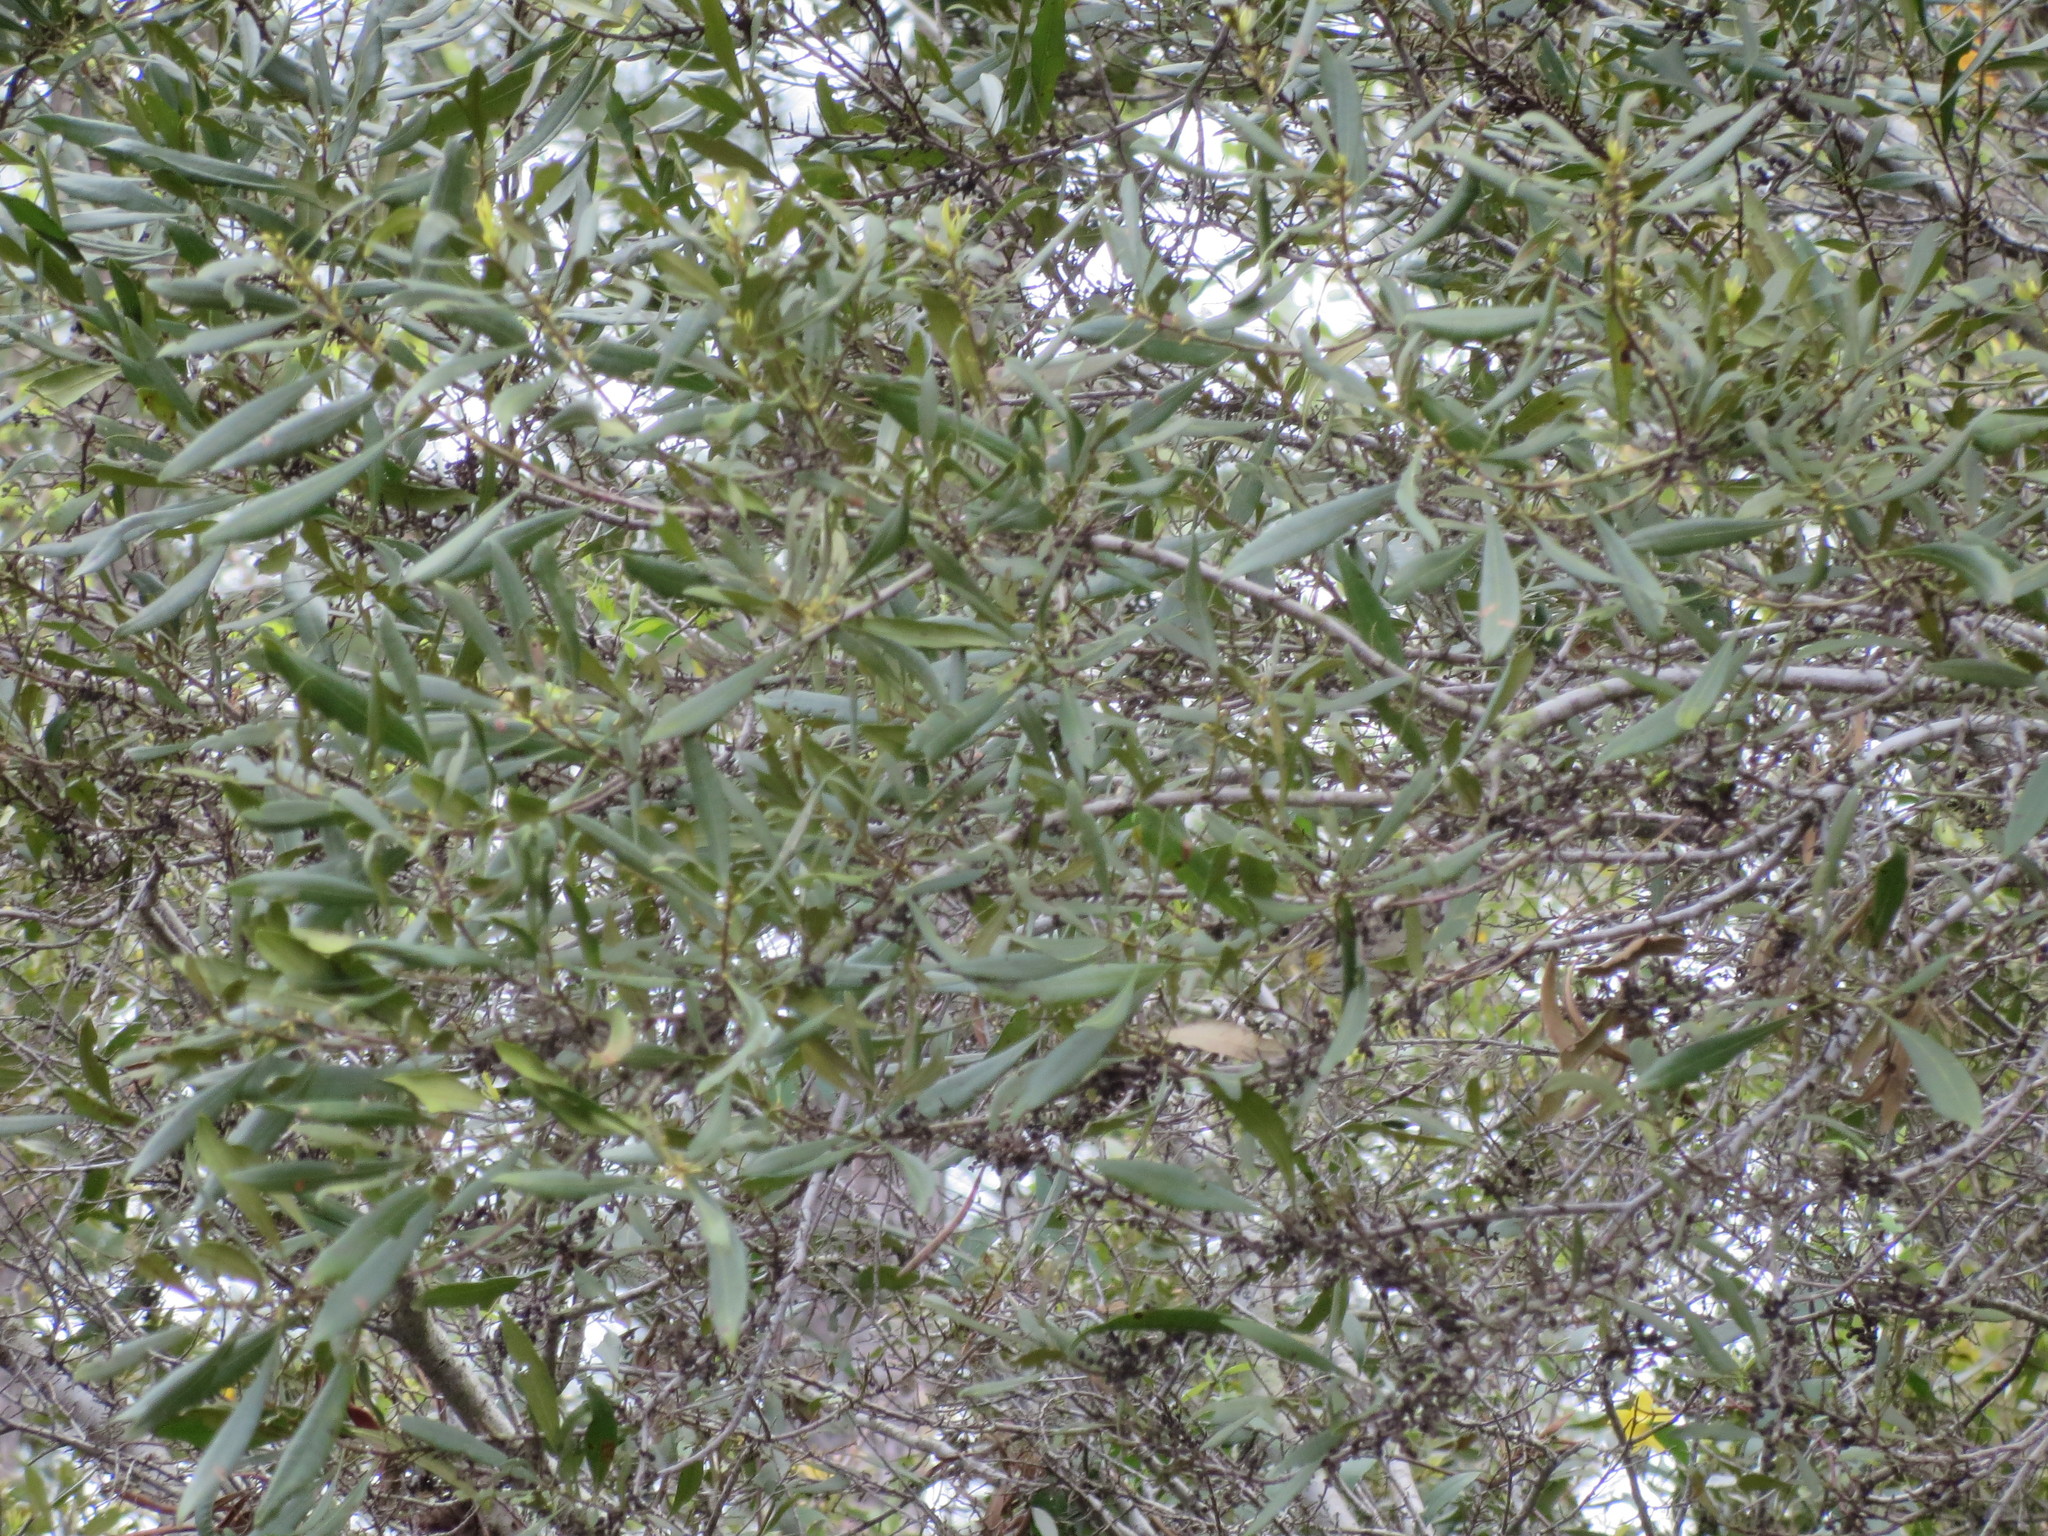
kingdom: Plantae
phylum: Tracheophyta
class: Magnoliopsida
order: Fagales
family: Myricaceae
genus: Morella
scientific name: Morella cerifera
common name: Wax myrtle
